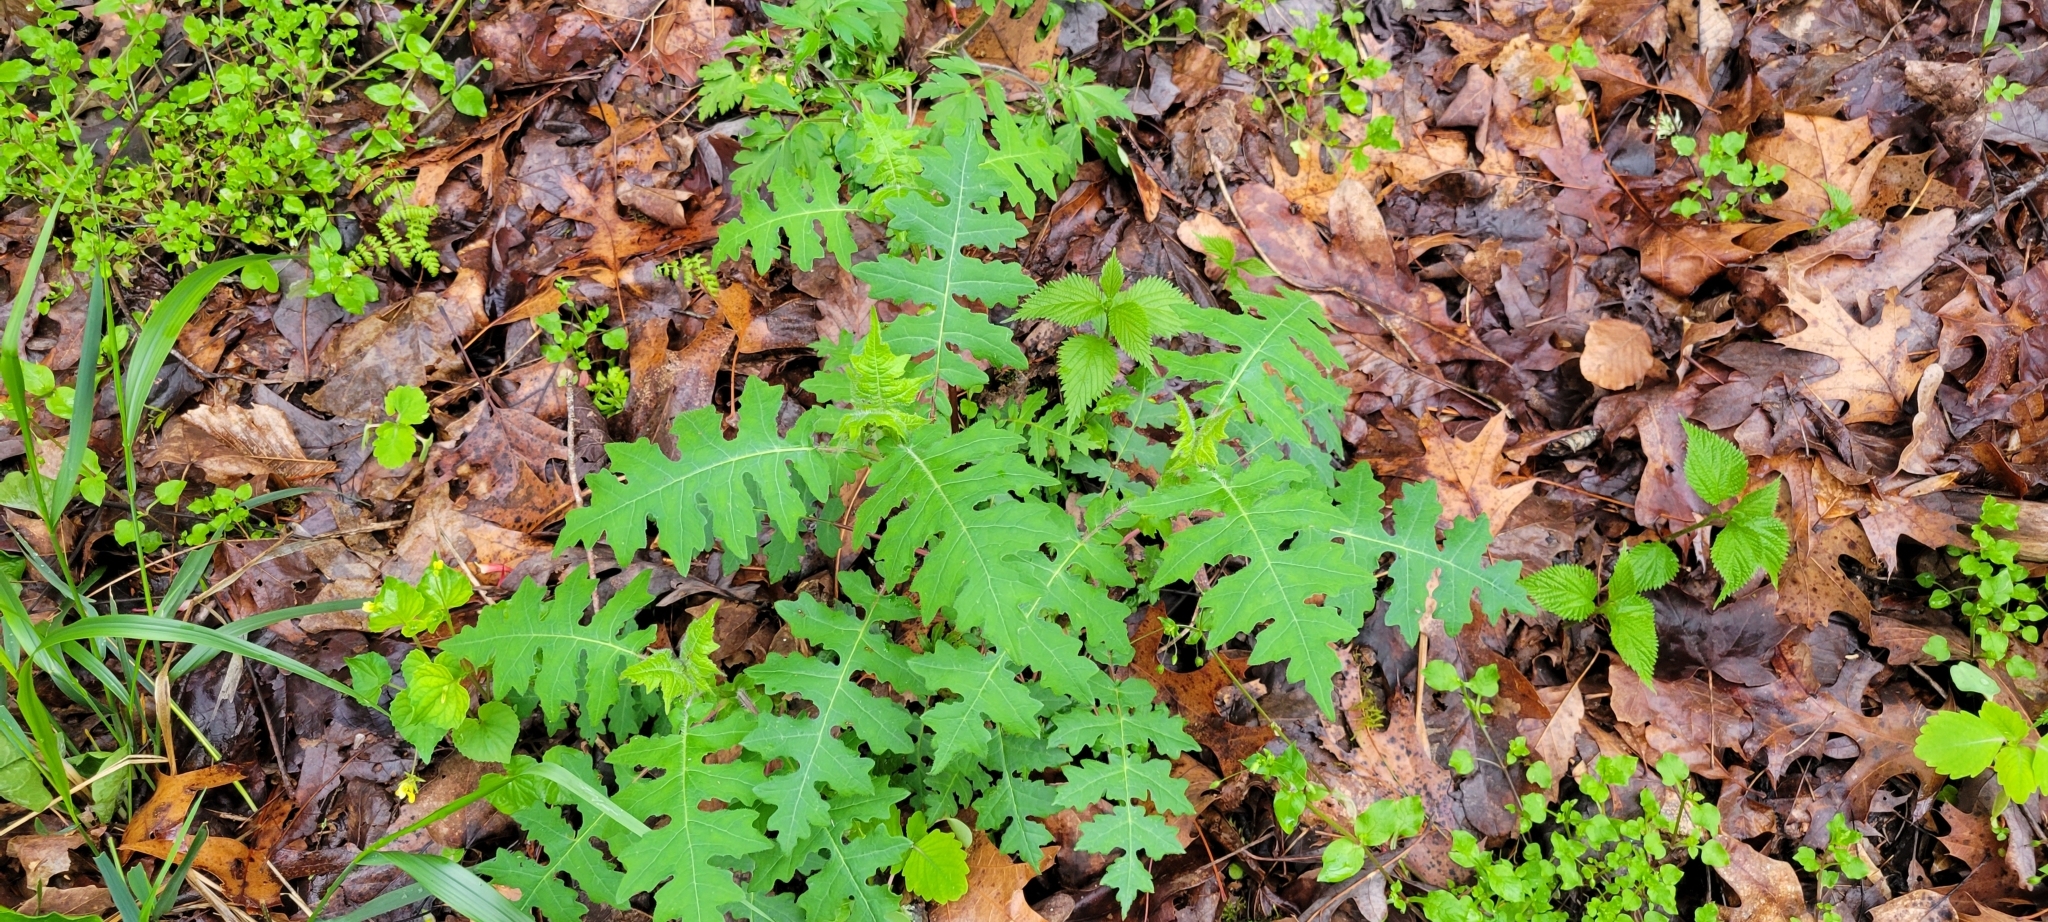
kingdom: Plantae
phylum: Tracheophyta
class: Magnoliopsida
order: Asterales
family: Asteraceae
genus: Polymnia
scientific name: Polymnia canadensis
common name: Pale-flowered leafcup
